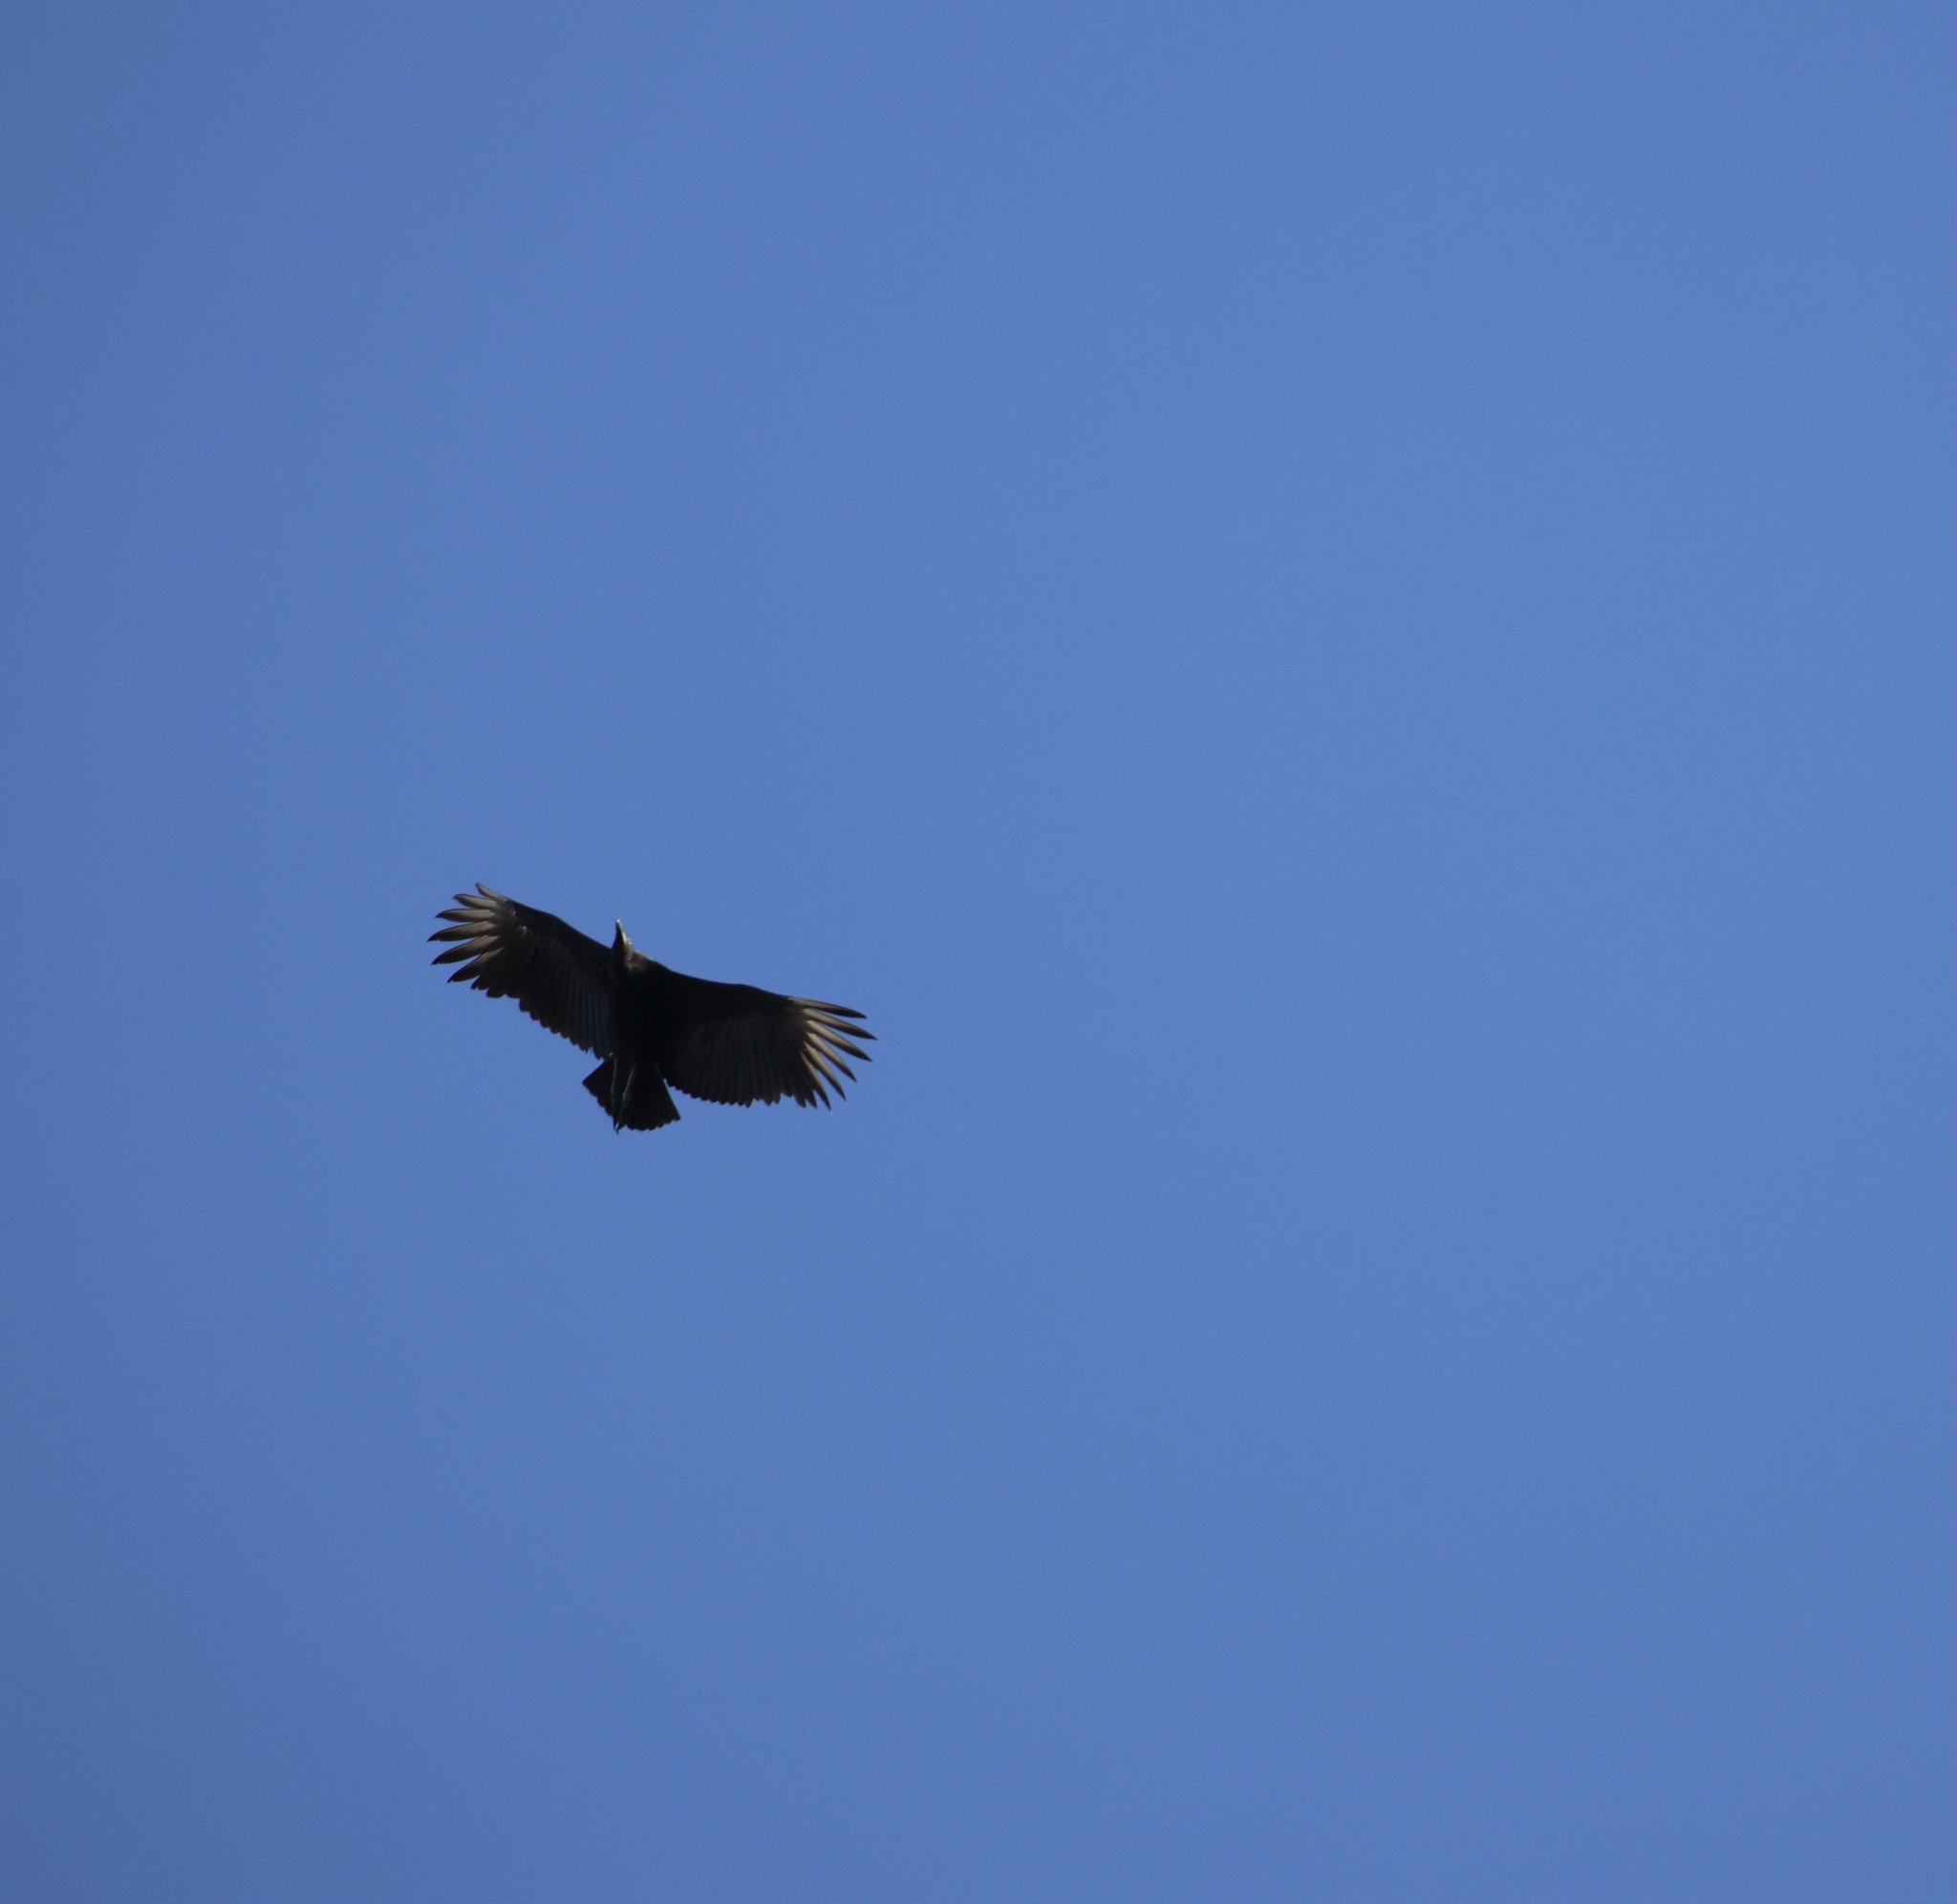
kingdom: Animalia
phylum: Chordata
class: Aves
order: Accipitriformes
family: Cathartidae
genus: Coragyps
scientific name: Coragyps atratus
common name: Black vulture
